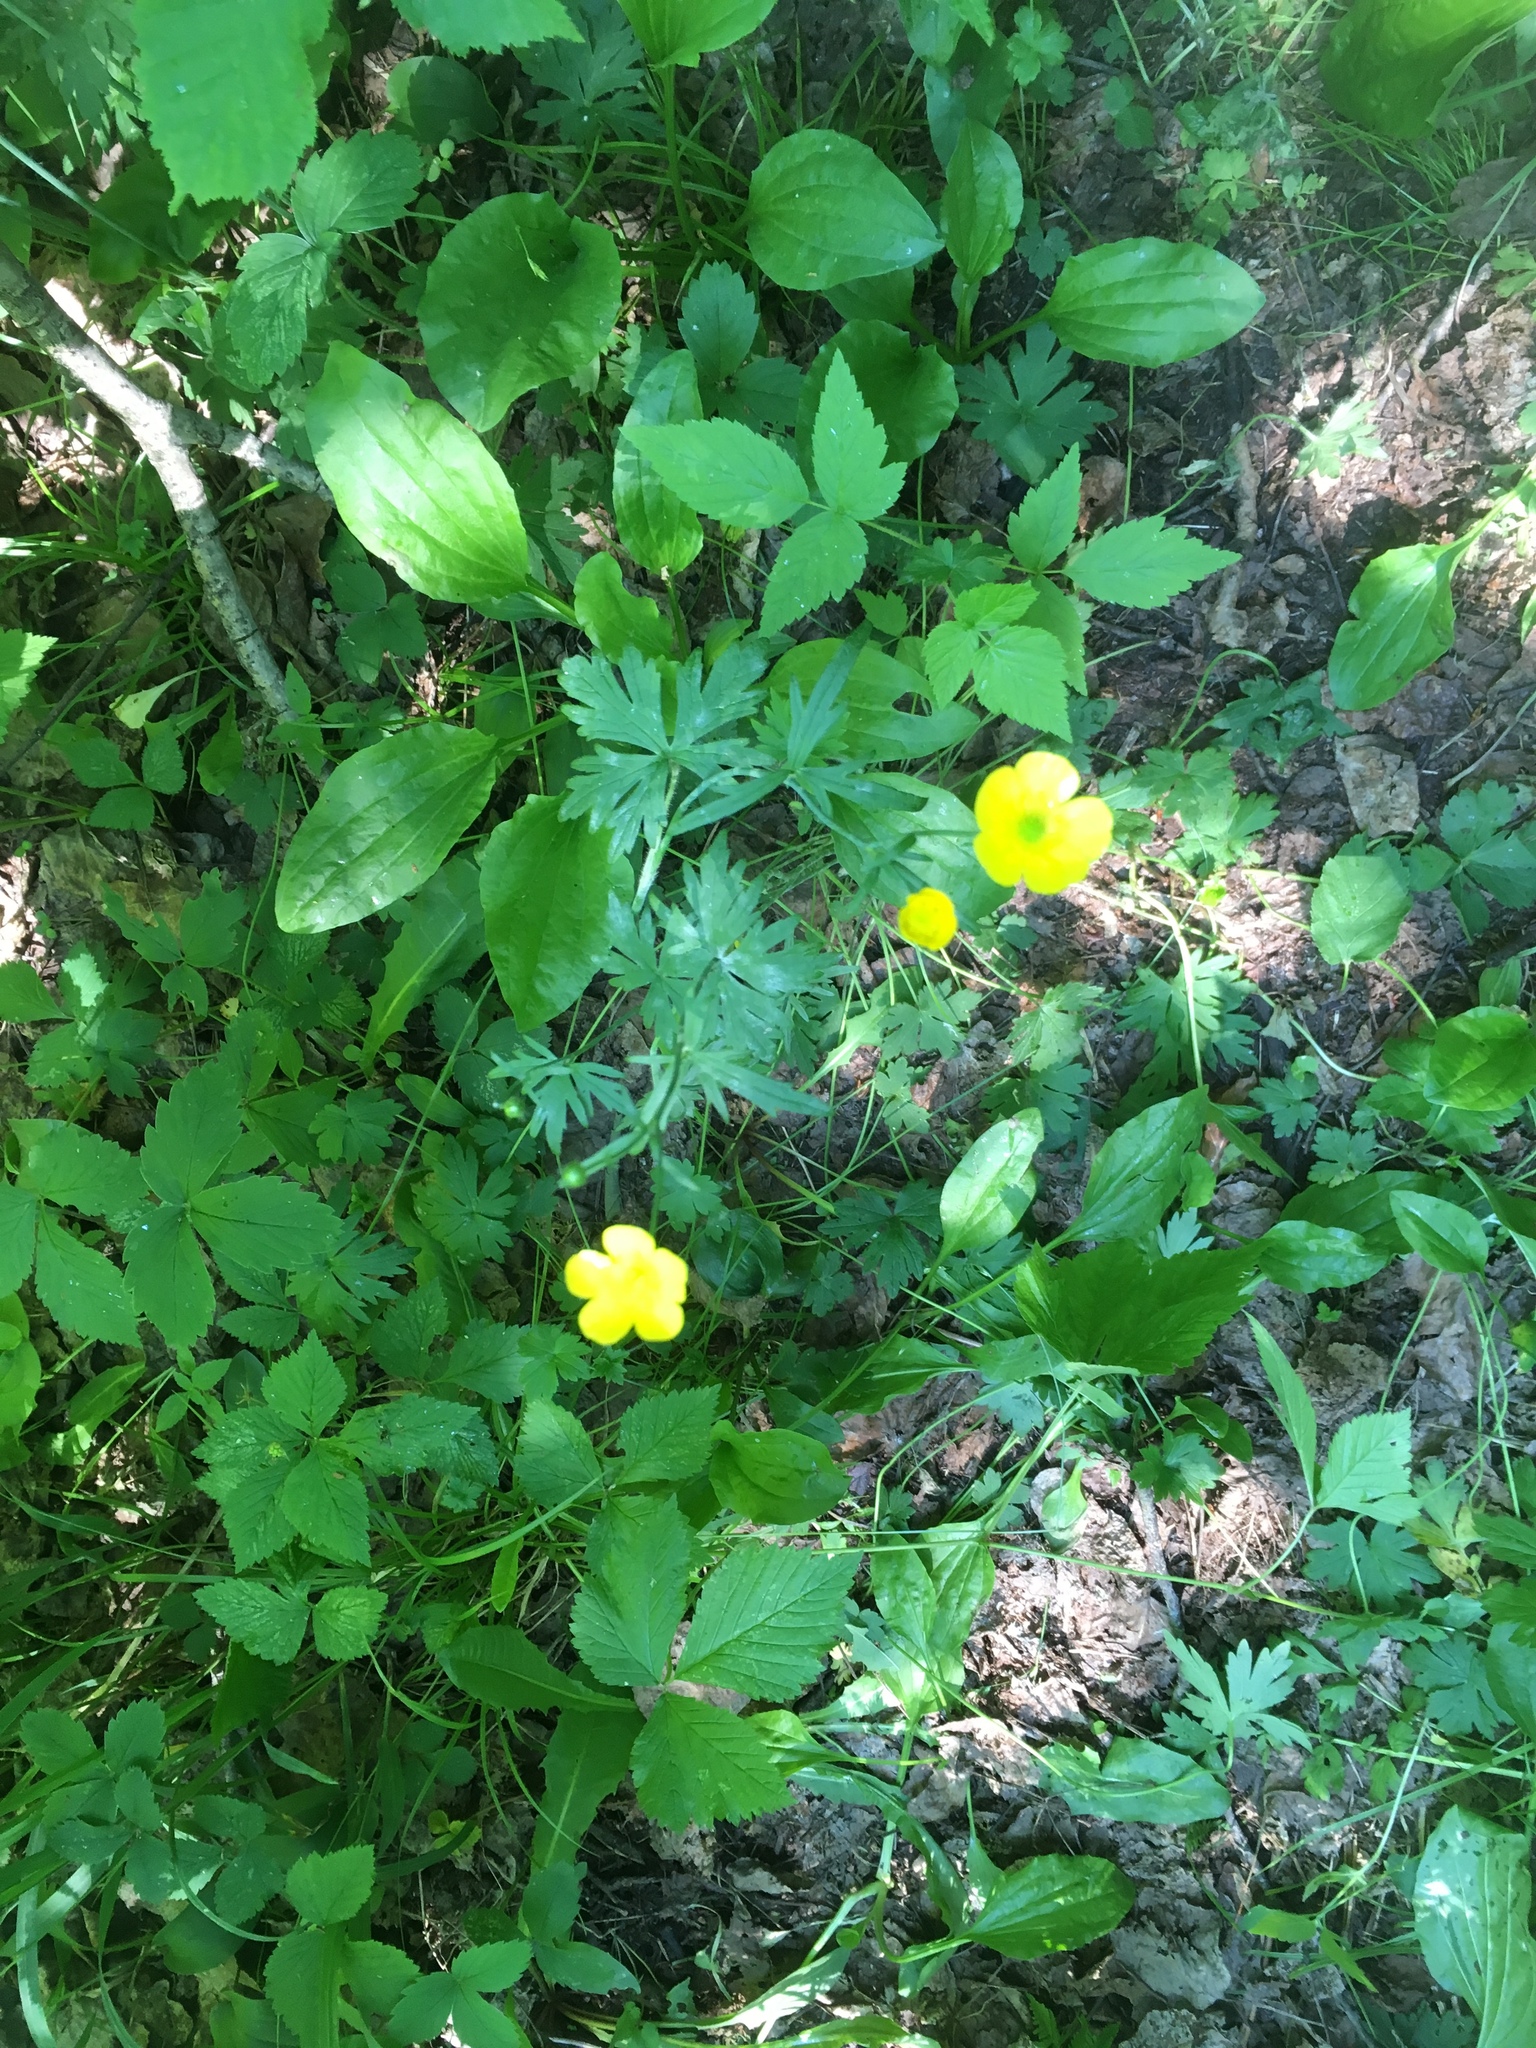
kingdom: Plantae
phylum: Tracheophyta
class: Magnoliopsida
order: Ranunculales
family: Ranunculaceae
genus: Ranunculus
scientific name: Ranunculus acris
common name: Meadow buttercup
